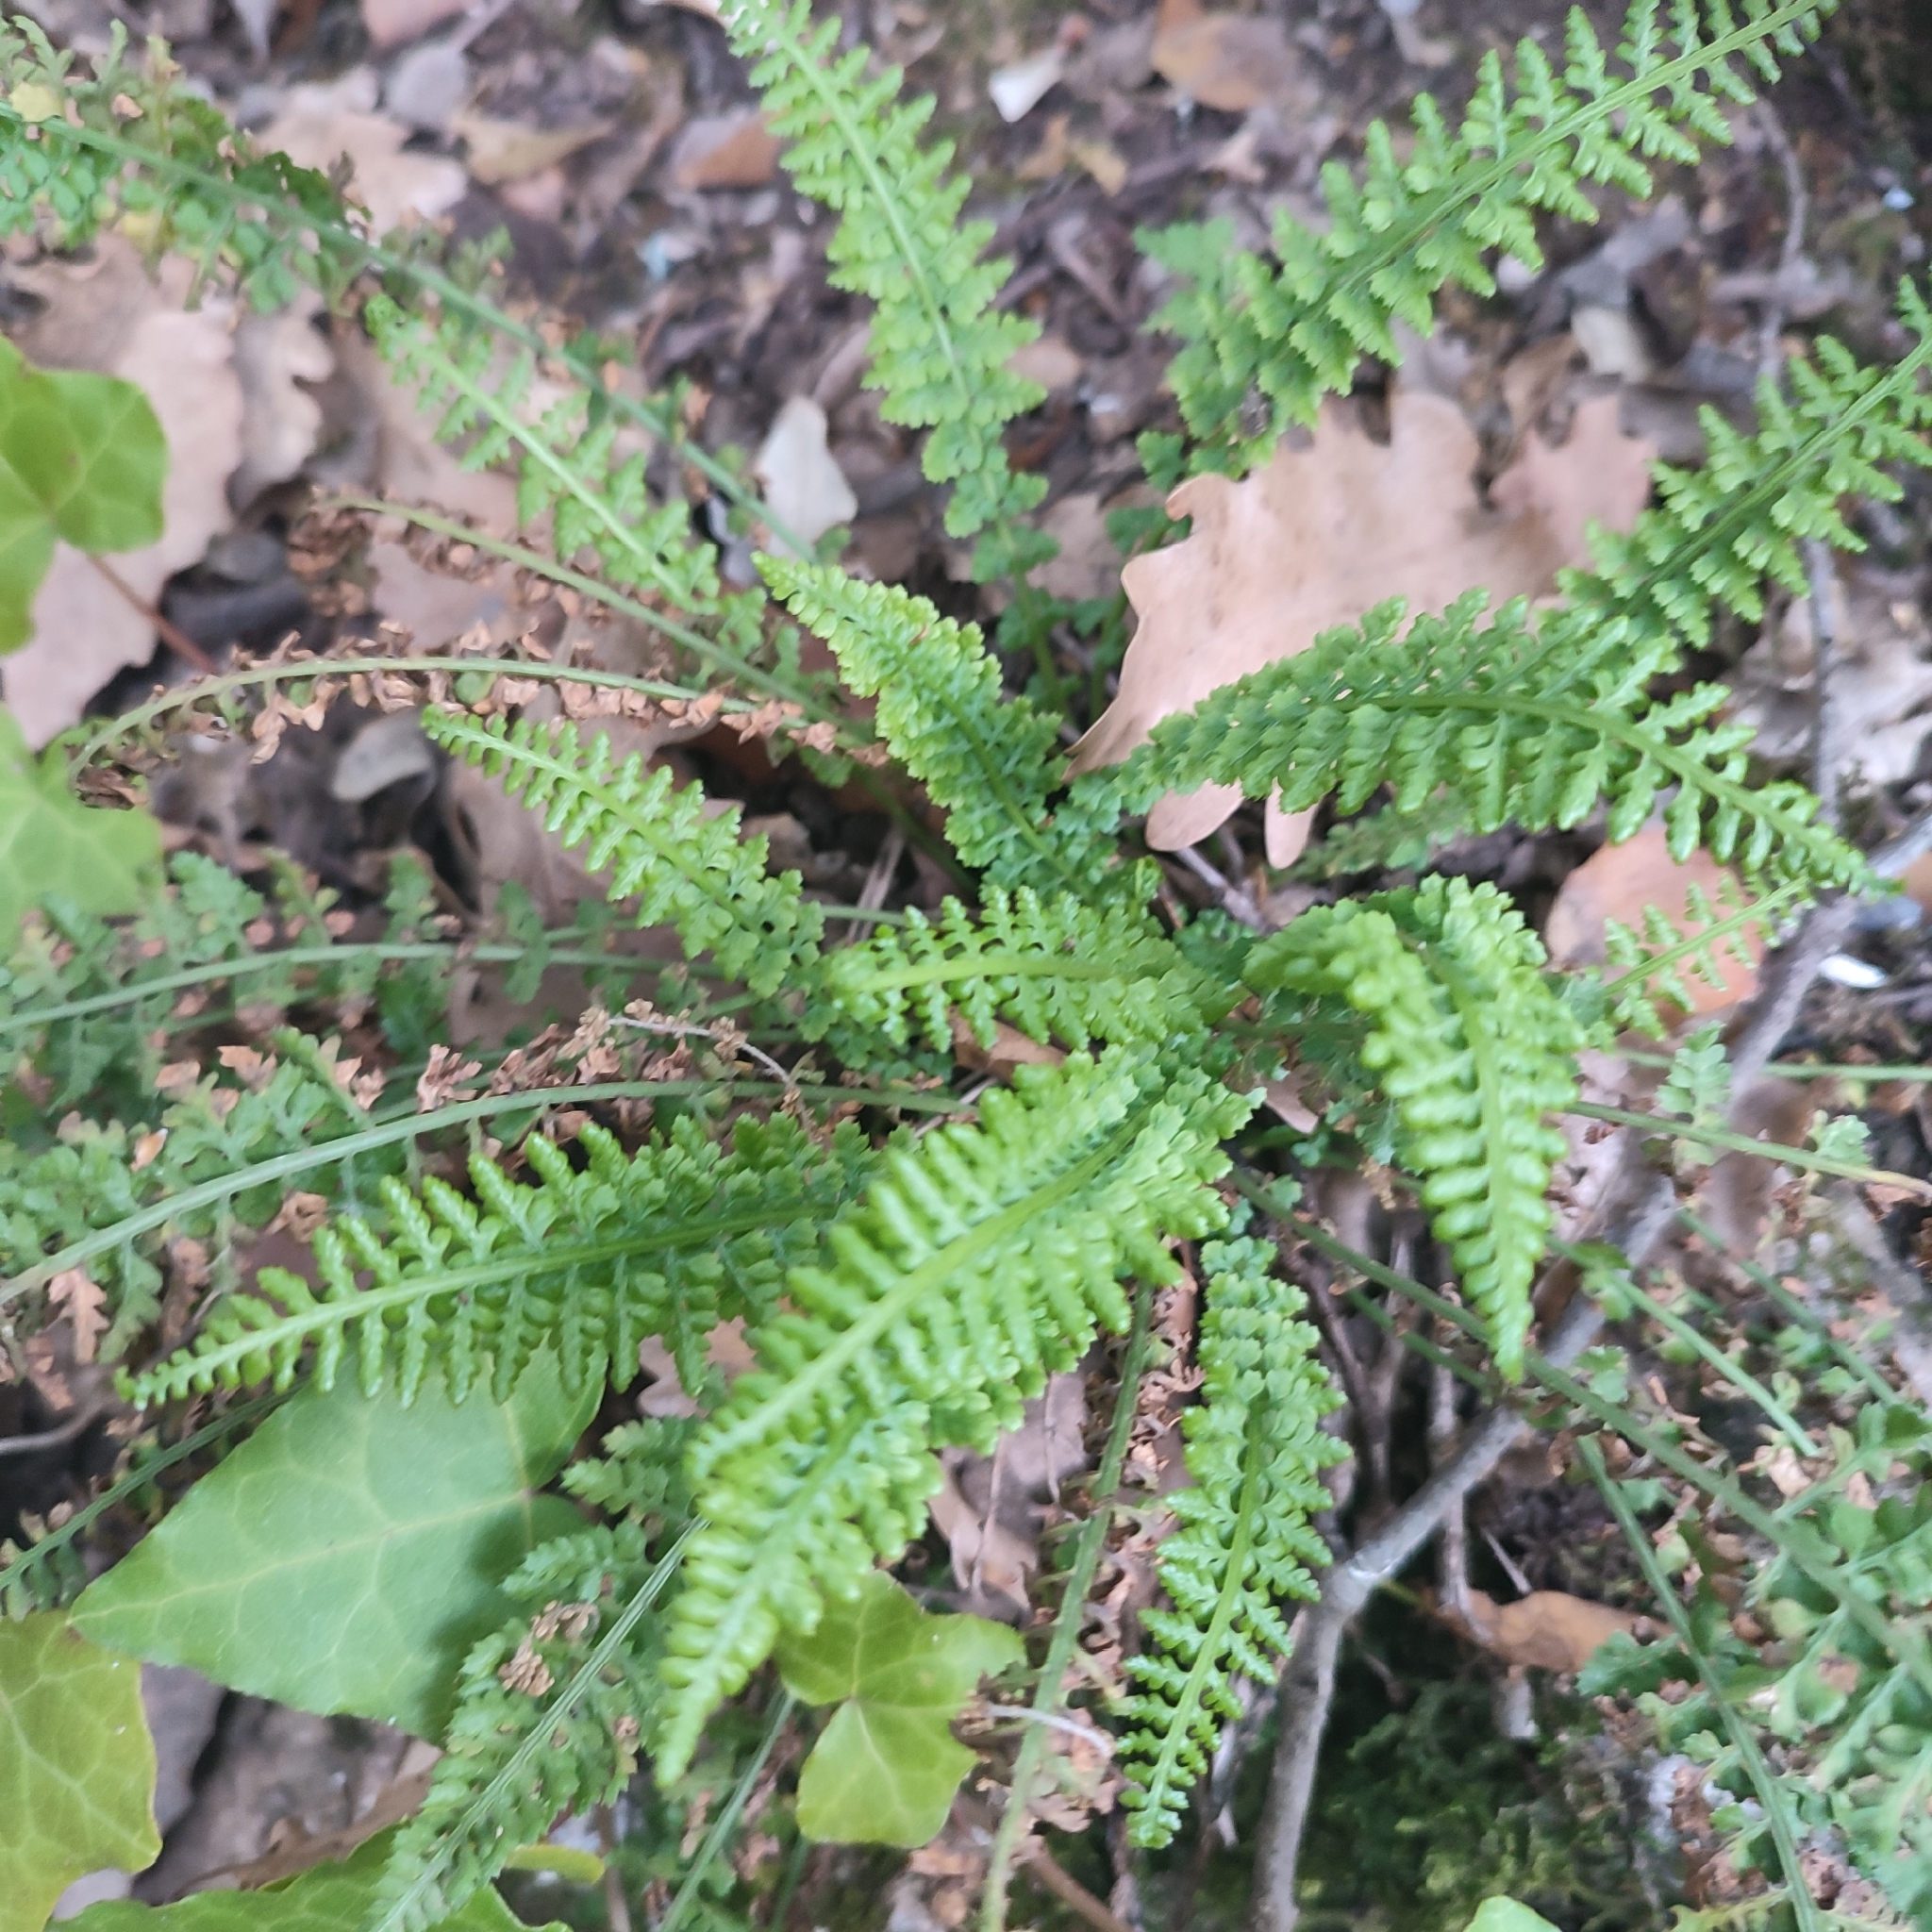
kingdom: Plantae
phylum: Tracheophyta
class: Polypodiopsida
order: Polypodiales
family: Aspleniaceae
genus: Asplenium
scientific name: Asplenium fontanum
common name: Fountain spleenwort
